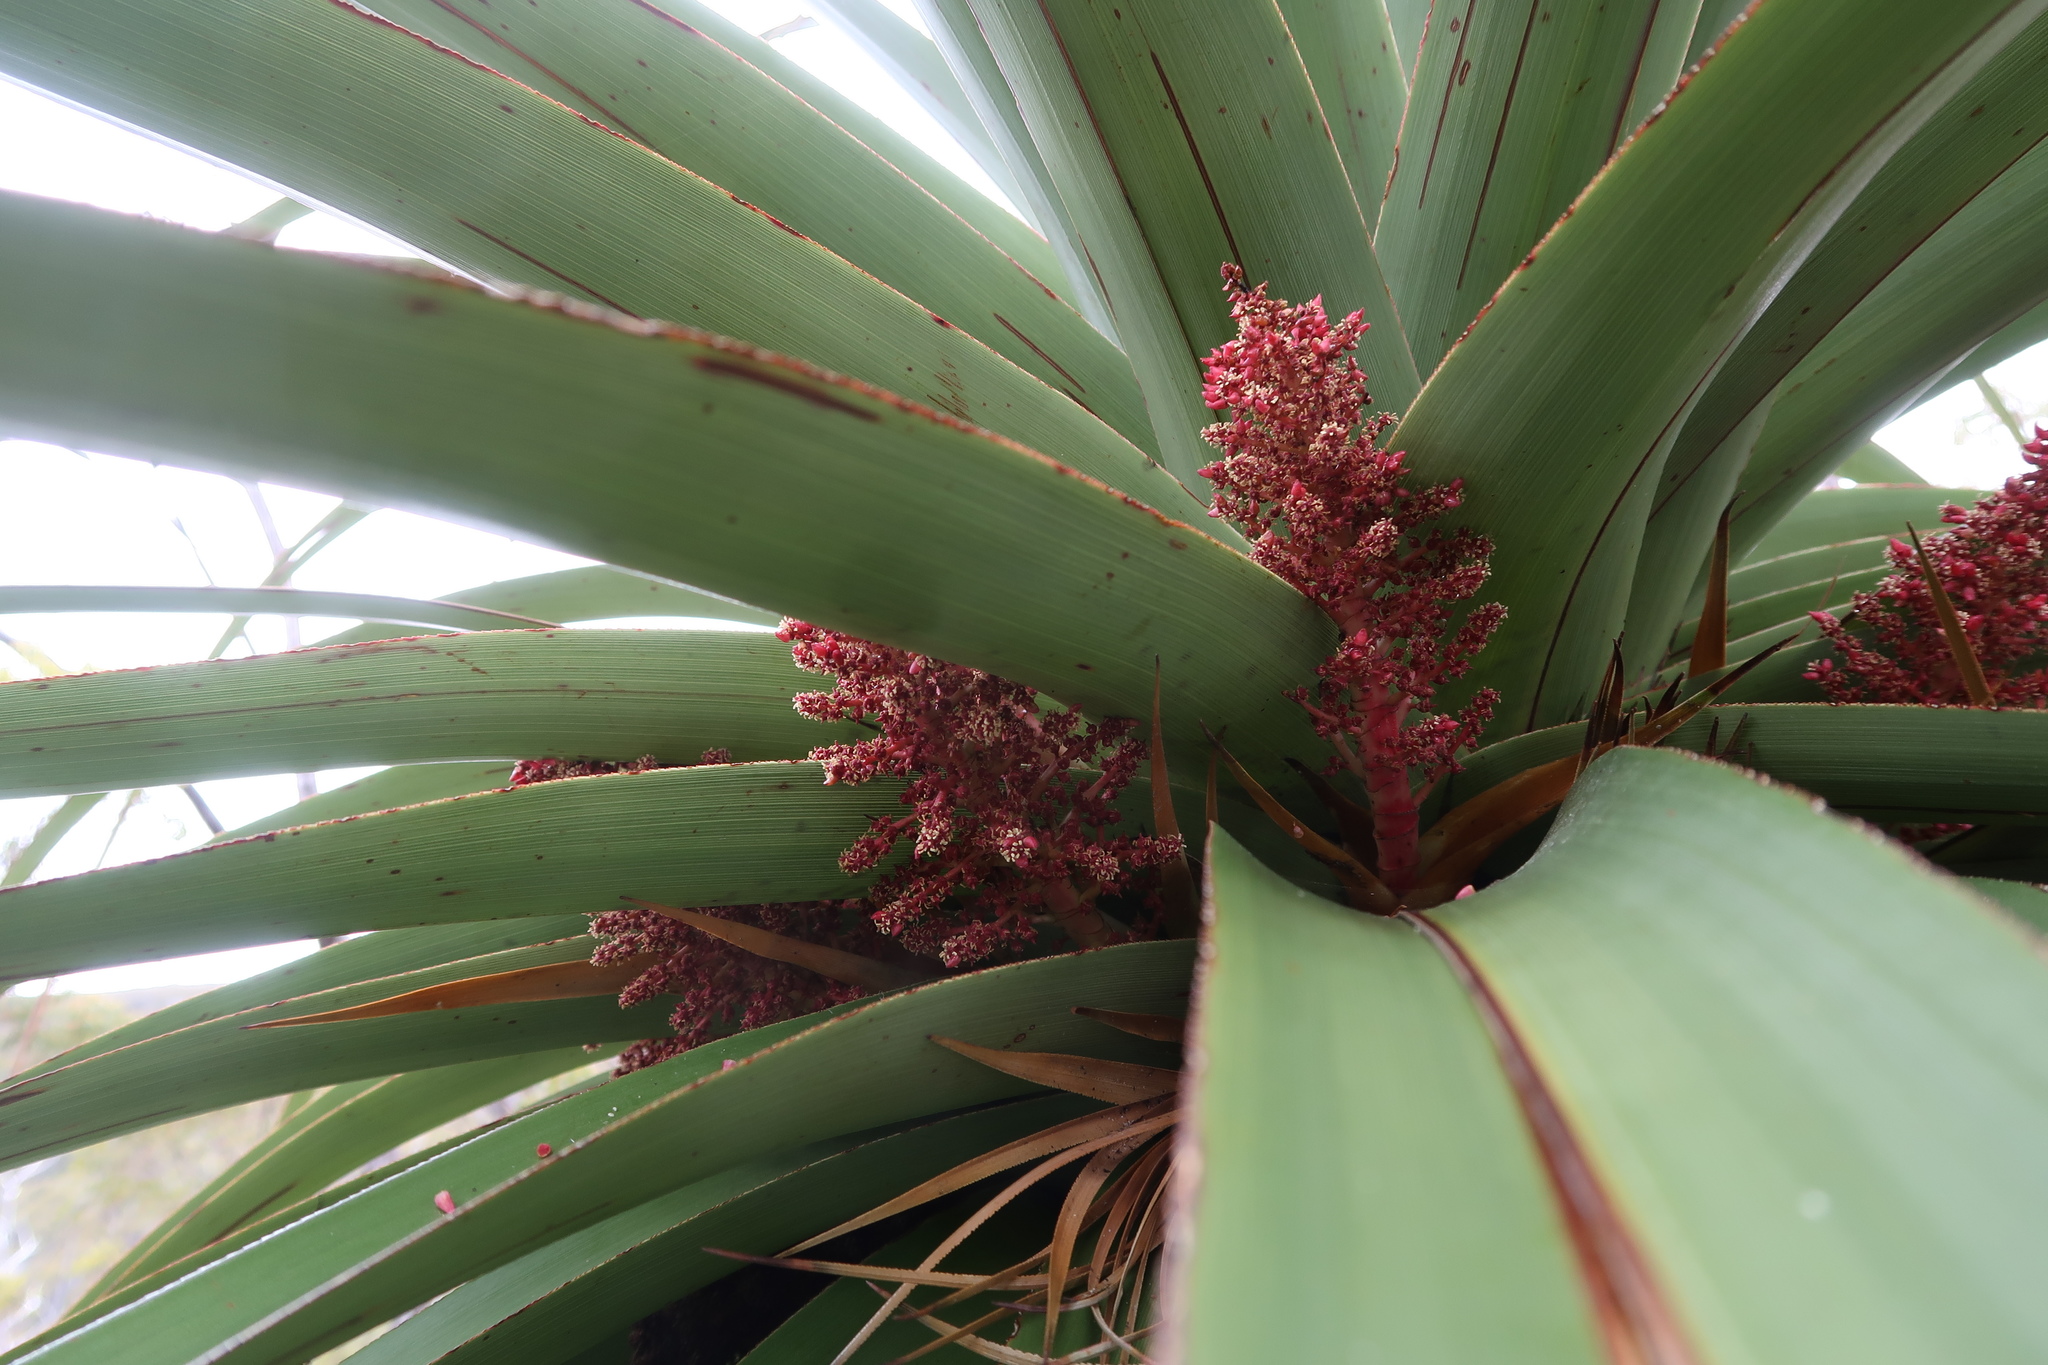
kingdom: Plantae
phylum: Tracheophyta
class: Magnoliopsida
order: Ericales
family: Ericaceae
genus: Dracophyllum
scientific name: Dracophyllum pandanifolium
